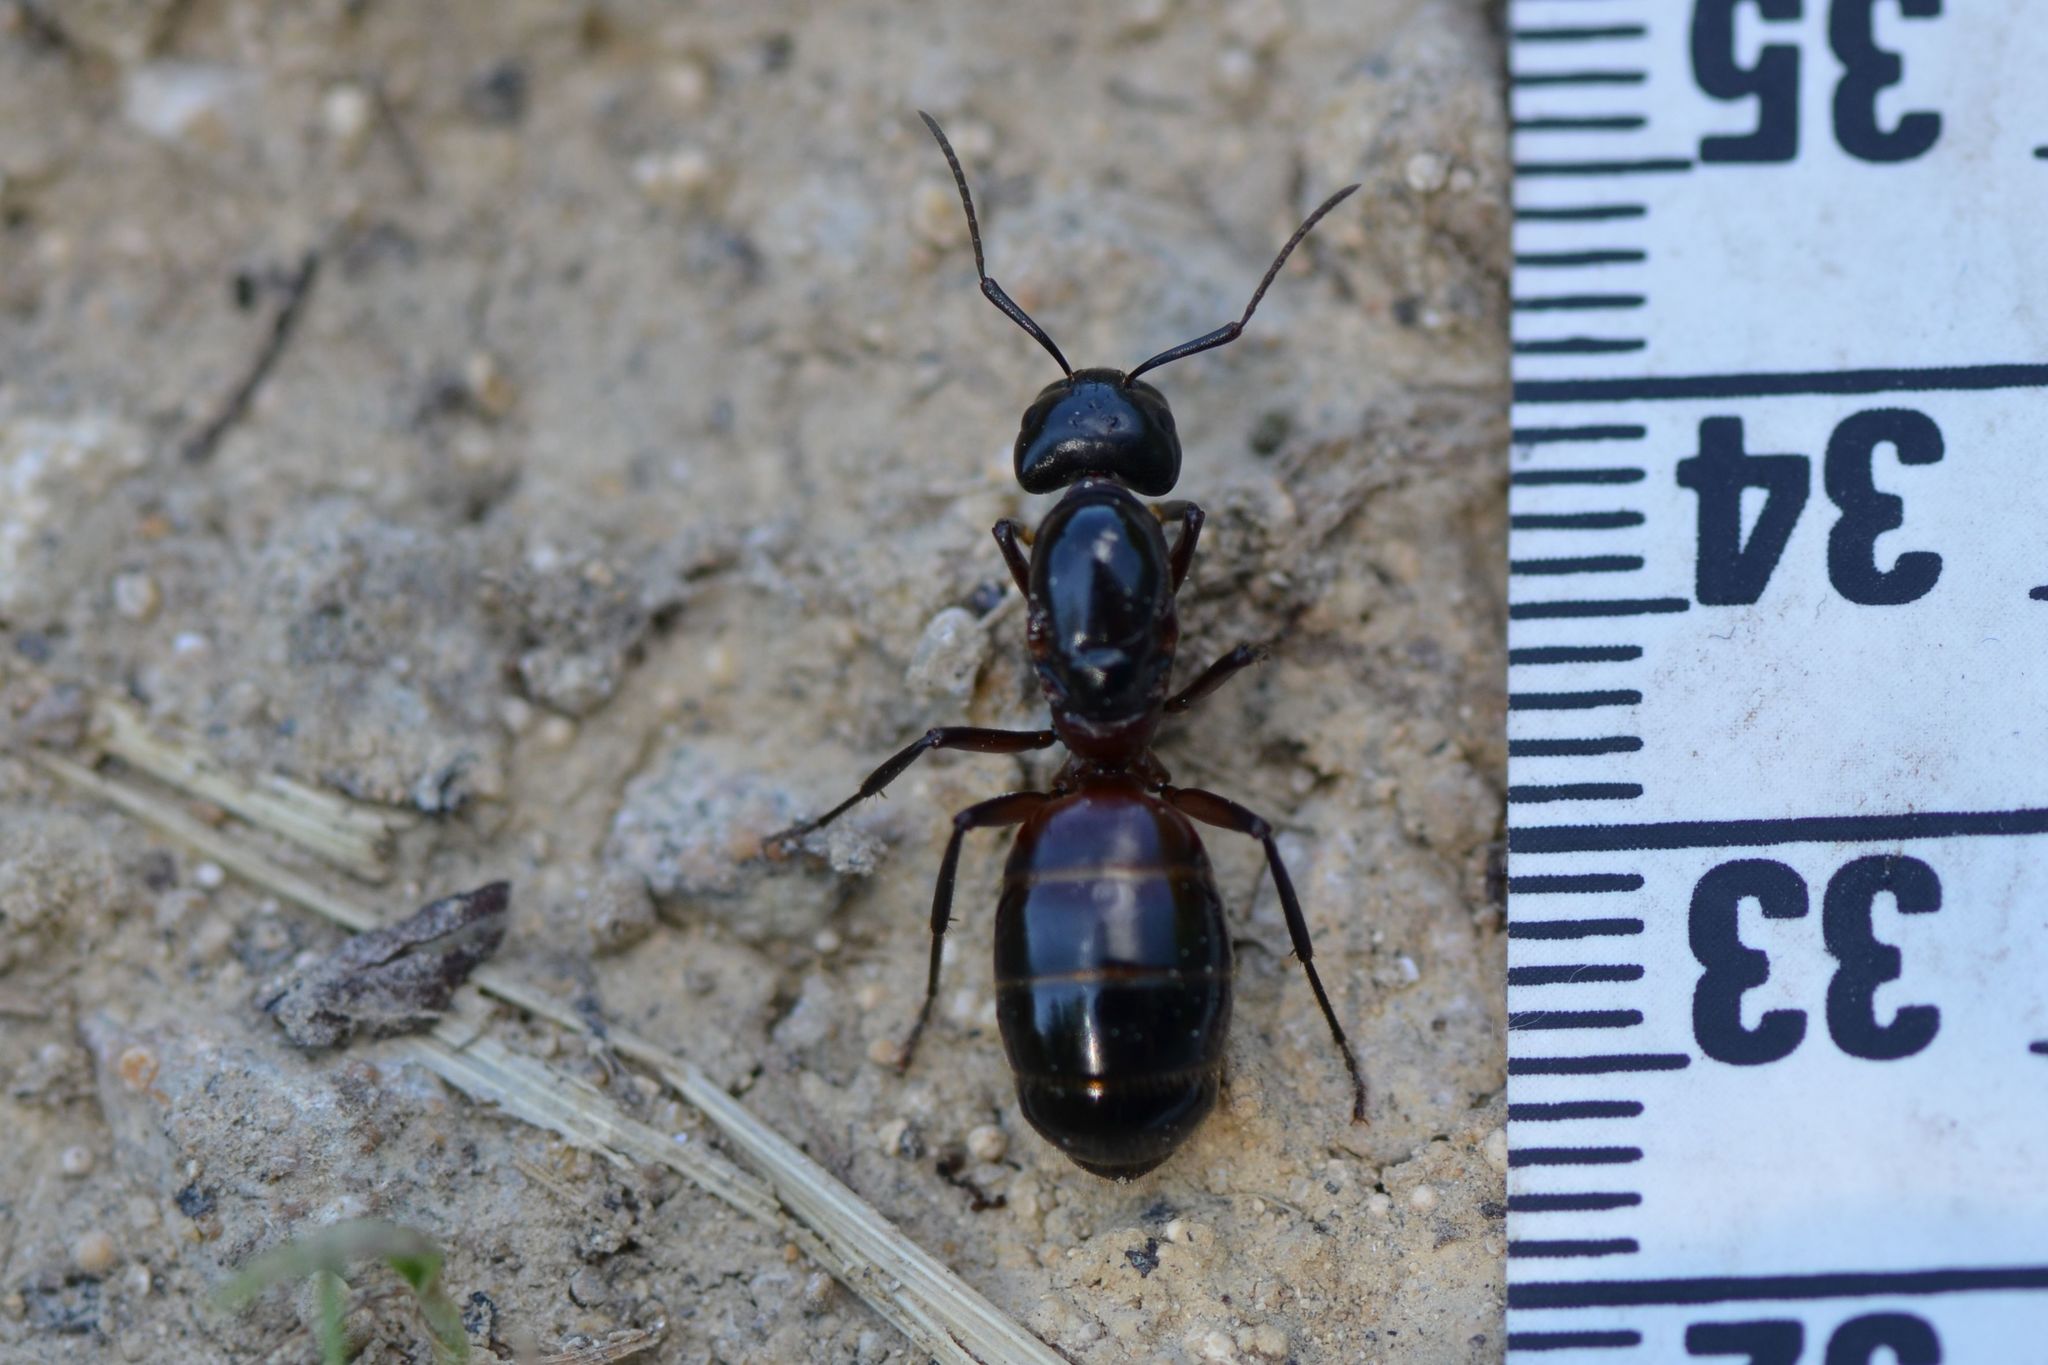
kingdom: Animalia
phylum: Arthropoda
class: Insecta
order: Hymenoptera
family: Formicidae
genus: Camponotus
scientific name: Camponotus ligniperdus
